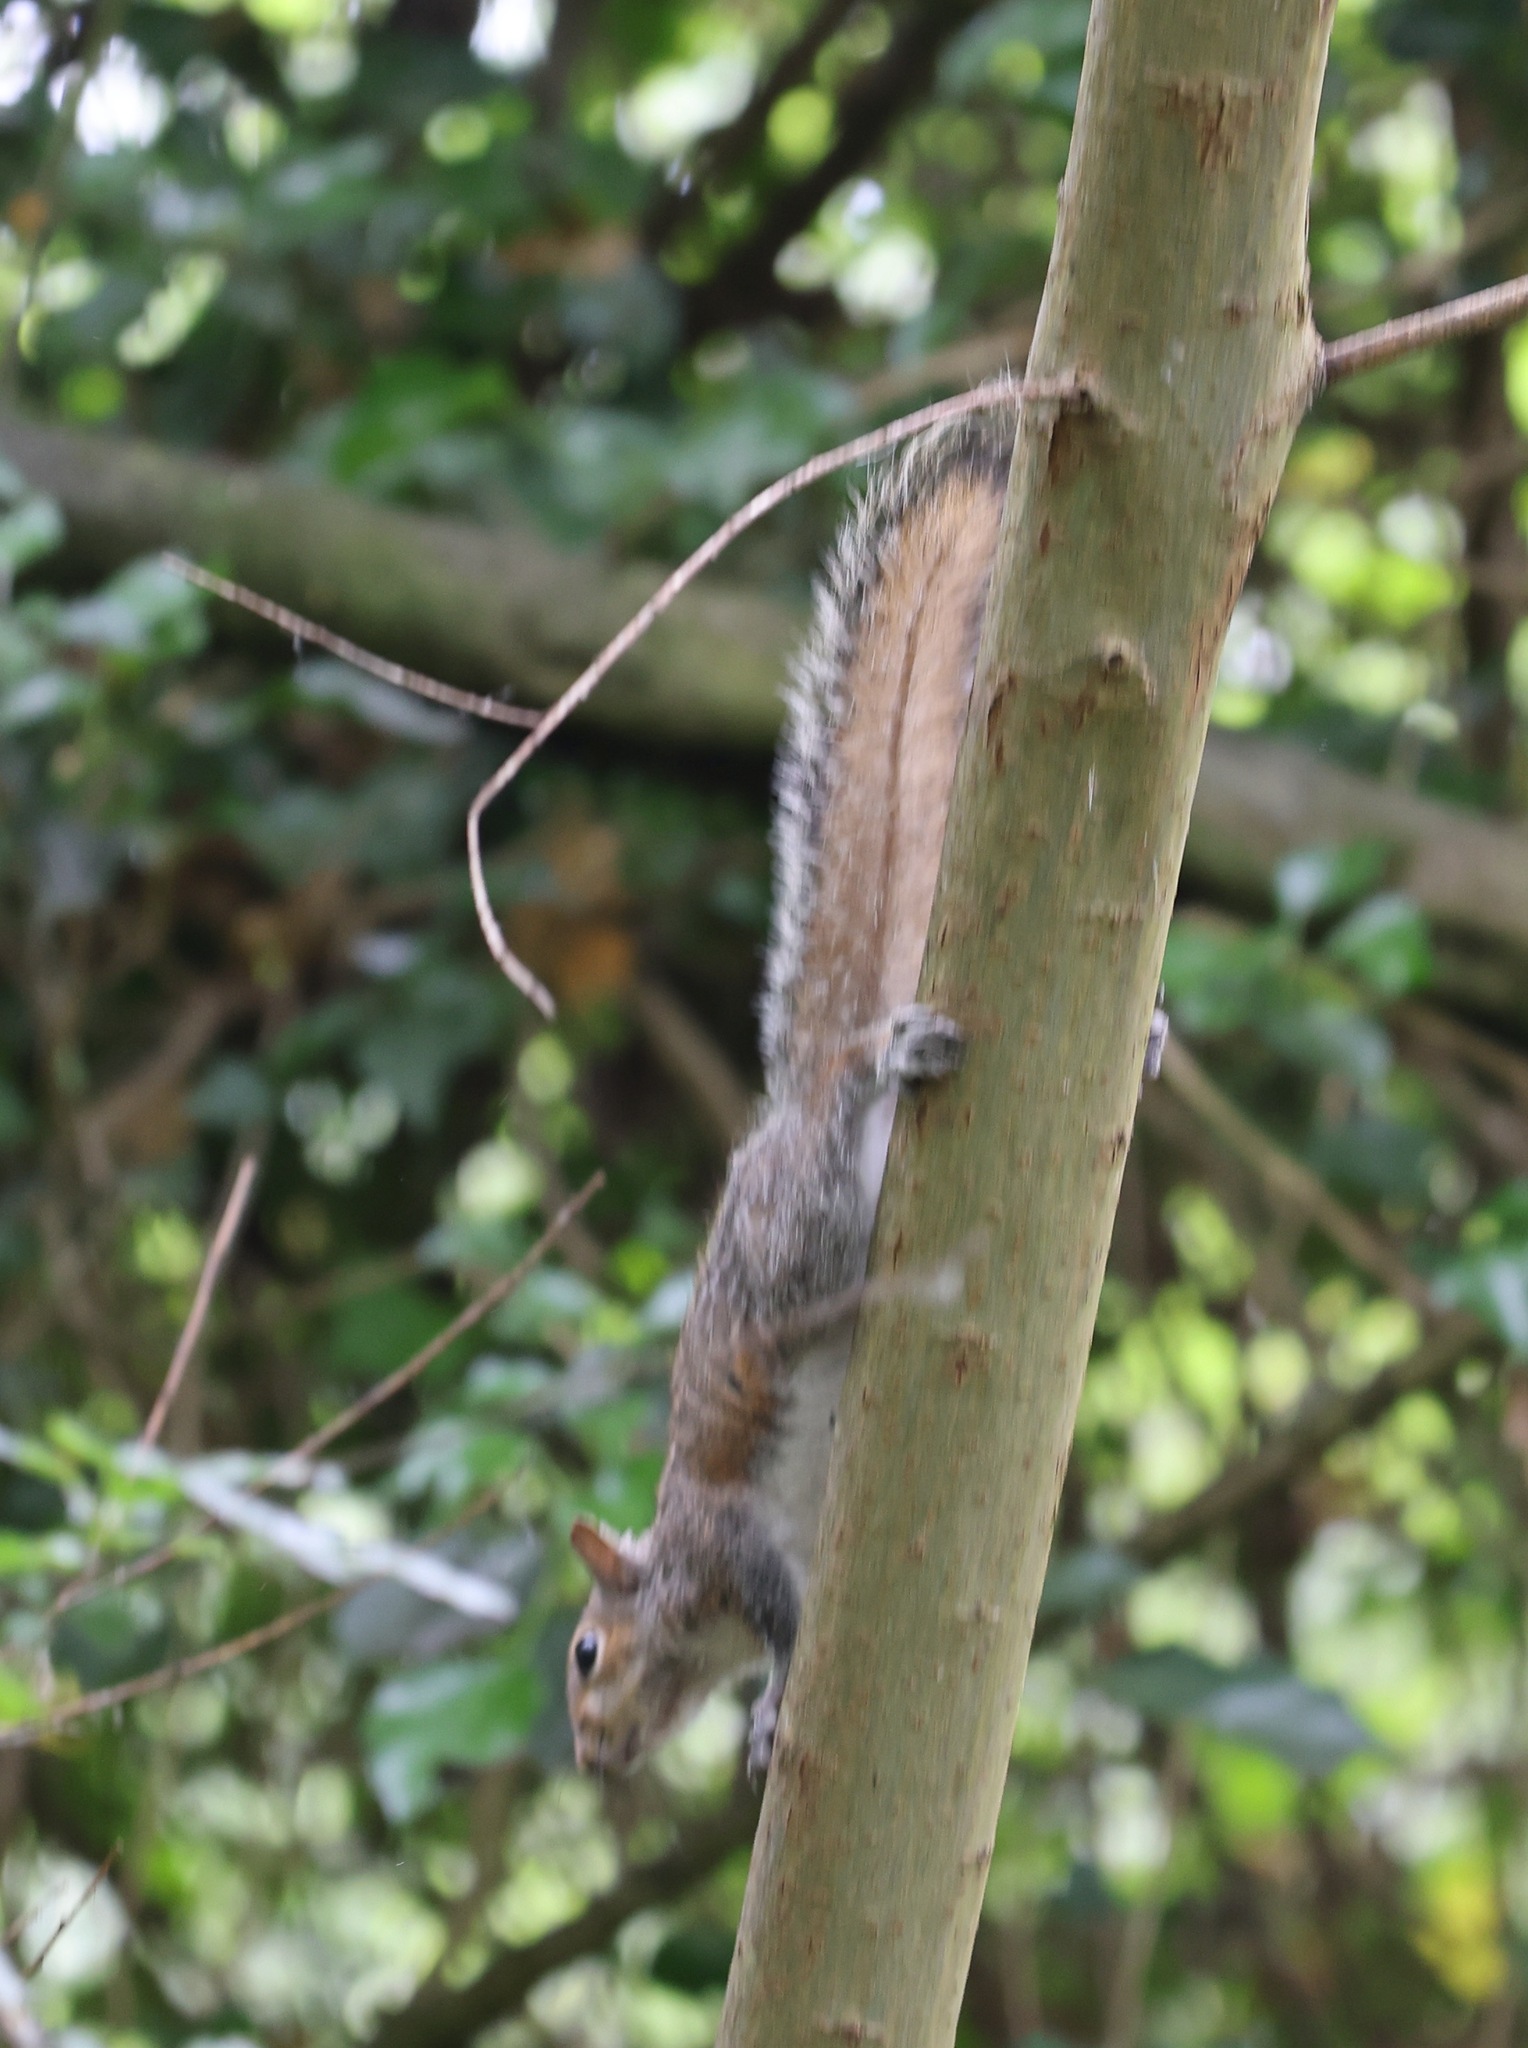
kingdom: Animalia
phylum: Chordata
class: Mammalia
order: Rodentia
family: Sciuridae
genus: Sciurus
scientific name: Sciurus carolinensis
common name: Eastern gray squirrel
